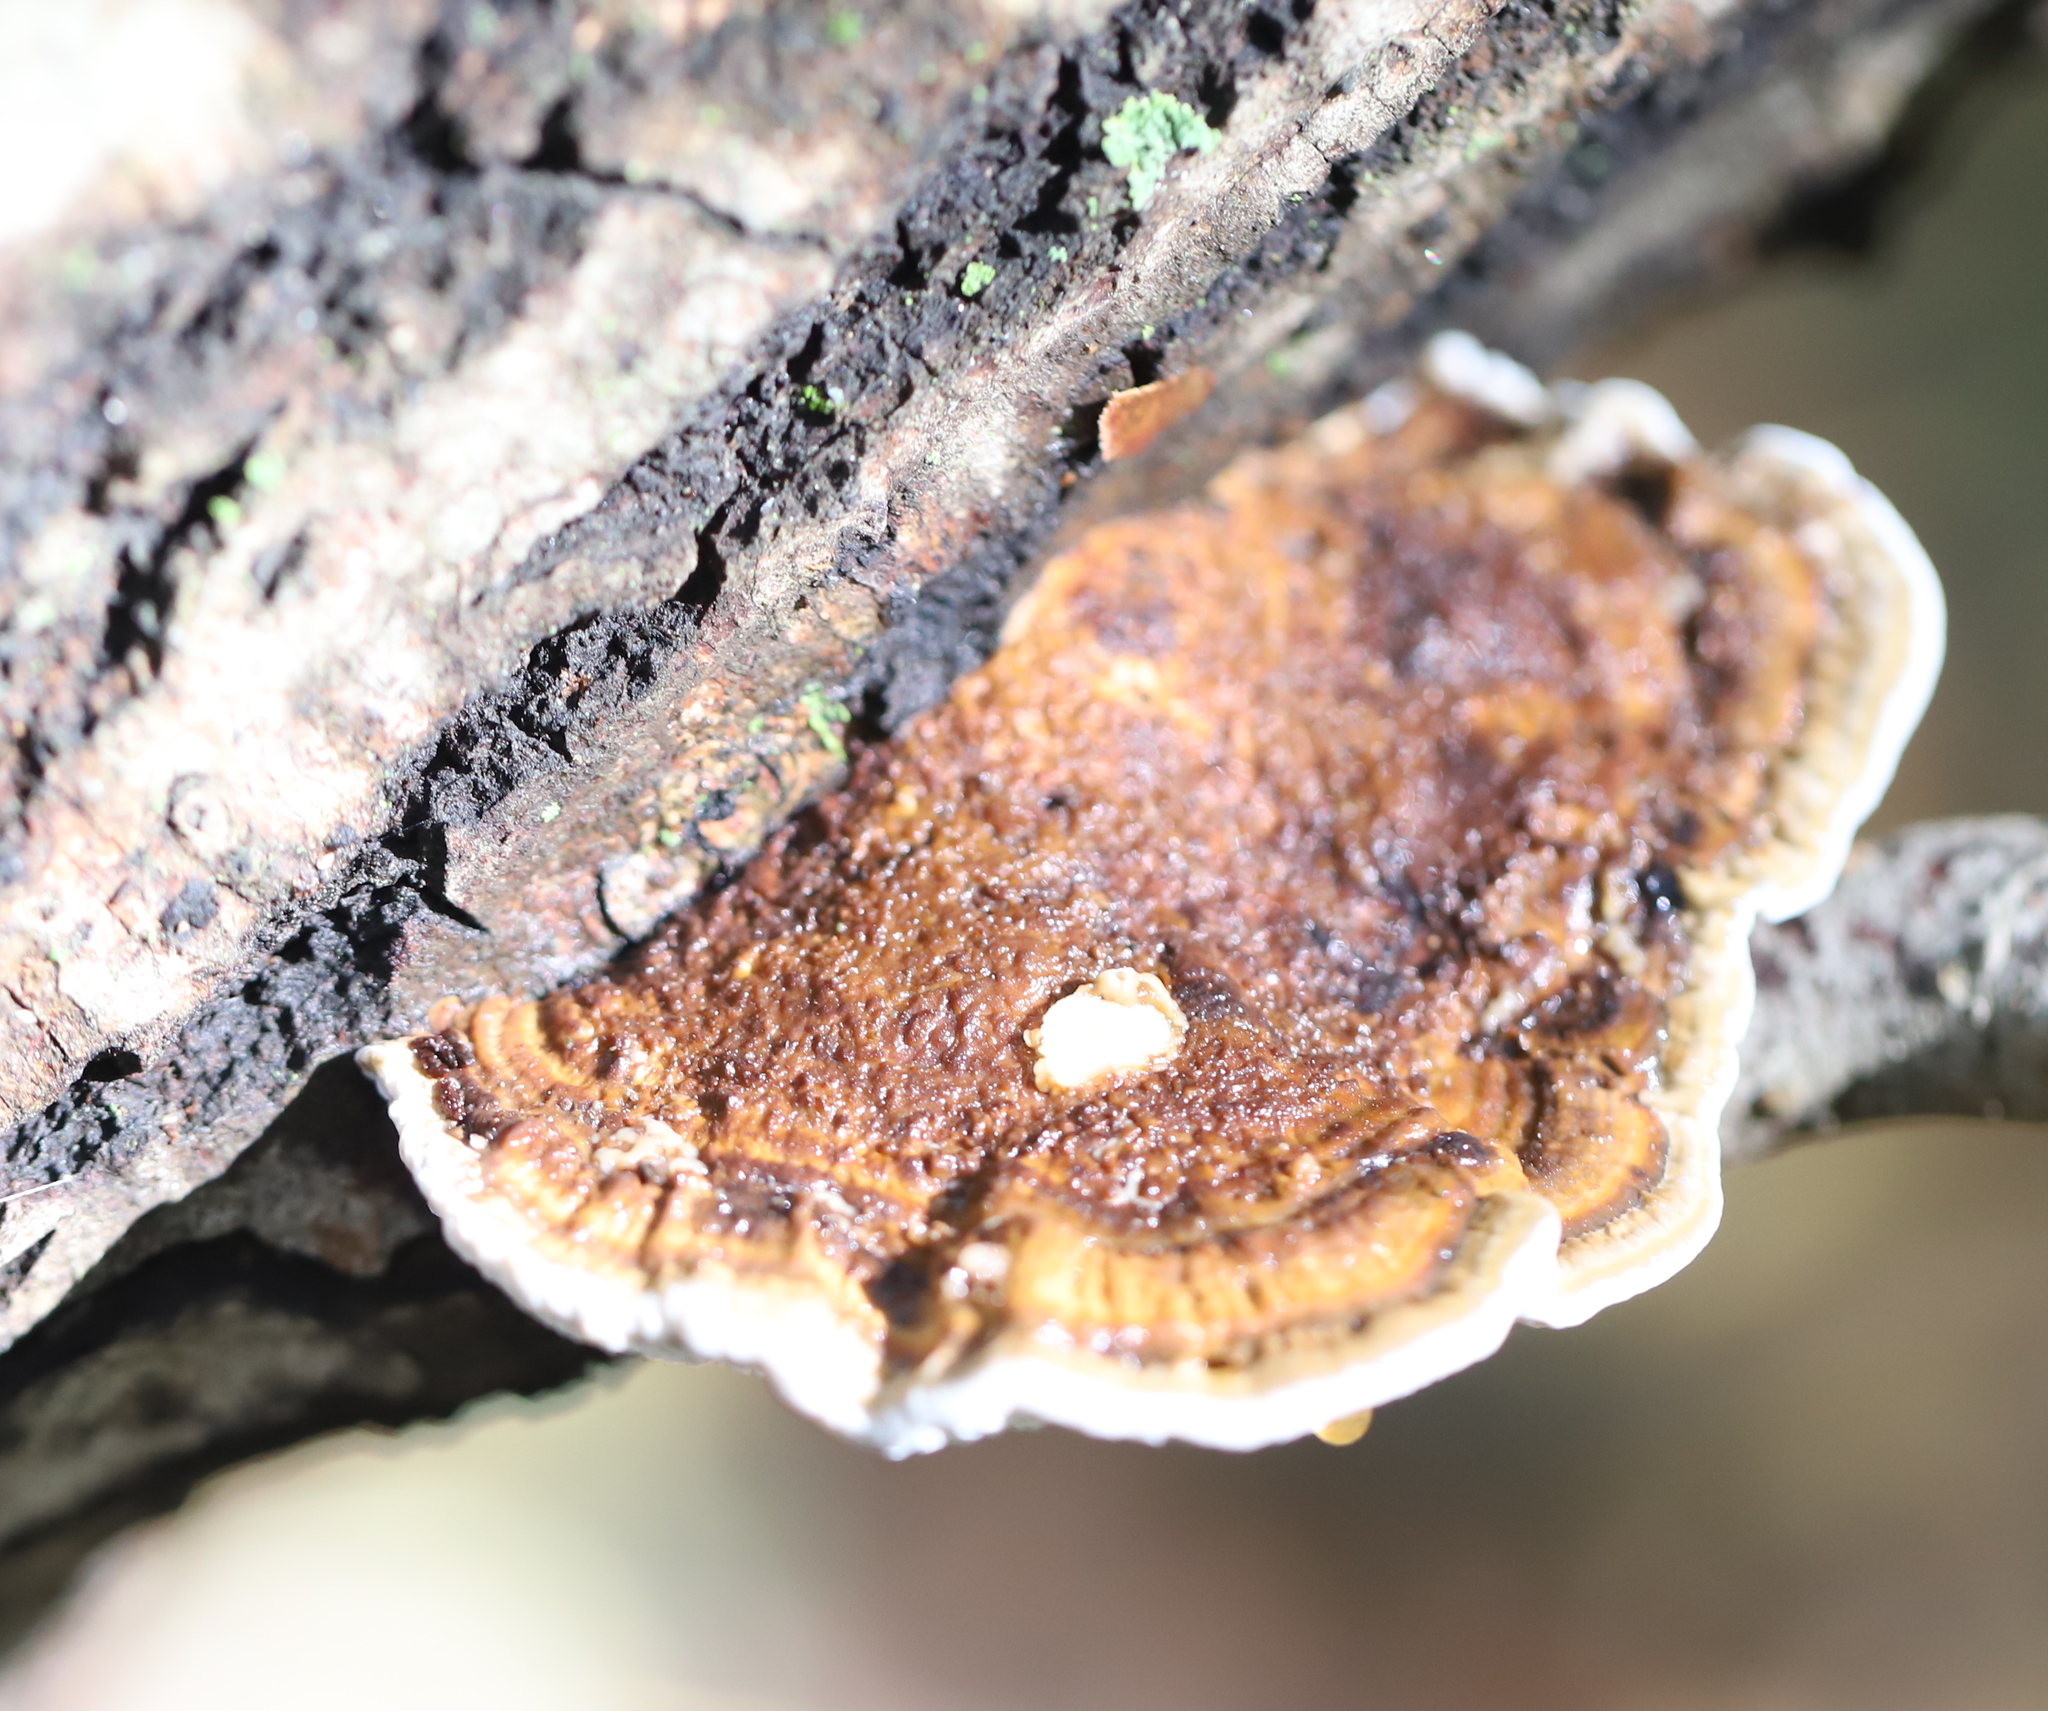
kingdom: Fungi
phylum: Basidiomycota
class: Agaricomycetes
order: Polyporales
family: Fomitopsidaceae
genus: Fomitopsis
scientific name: Fomitopsis
